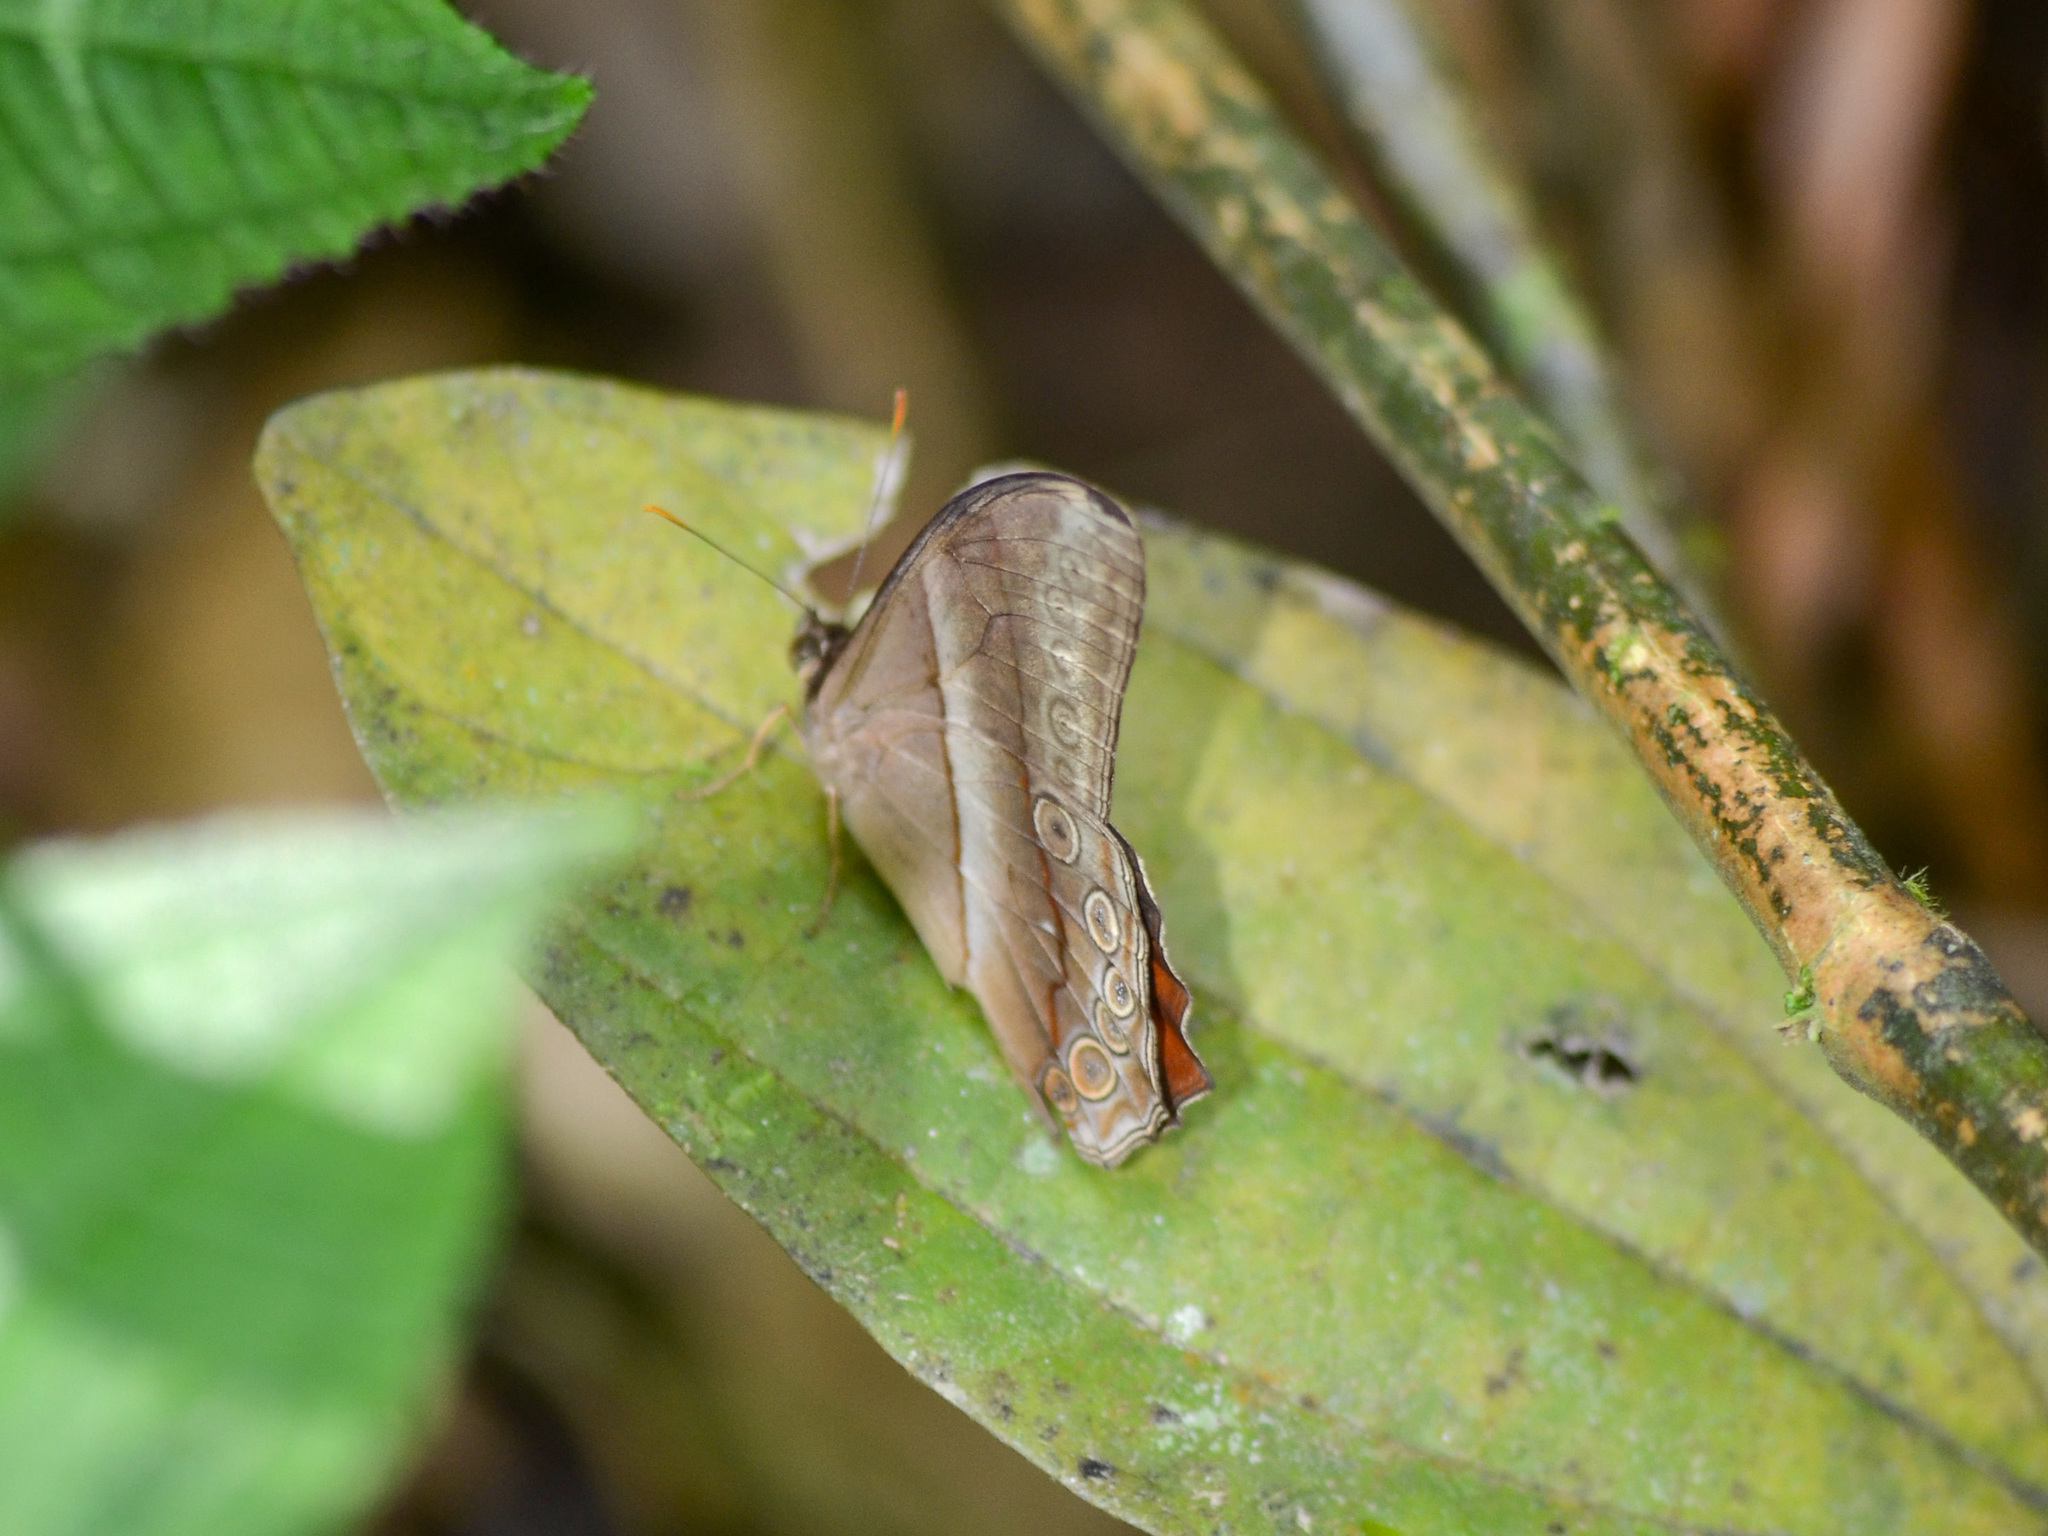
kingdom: Animalia
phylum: Arthropoda
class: Insecta
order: Lepidoptera
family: Nymphalidae
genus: Lethe
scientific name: Lethe mekara
